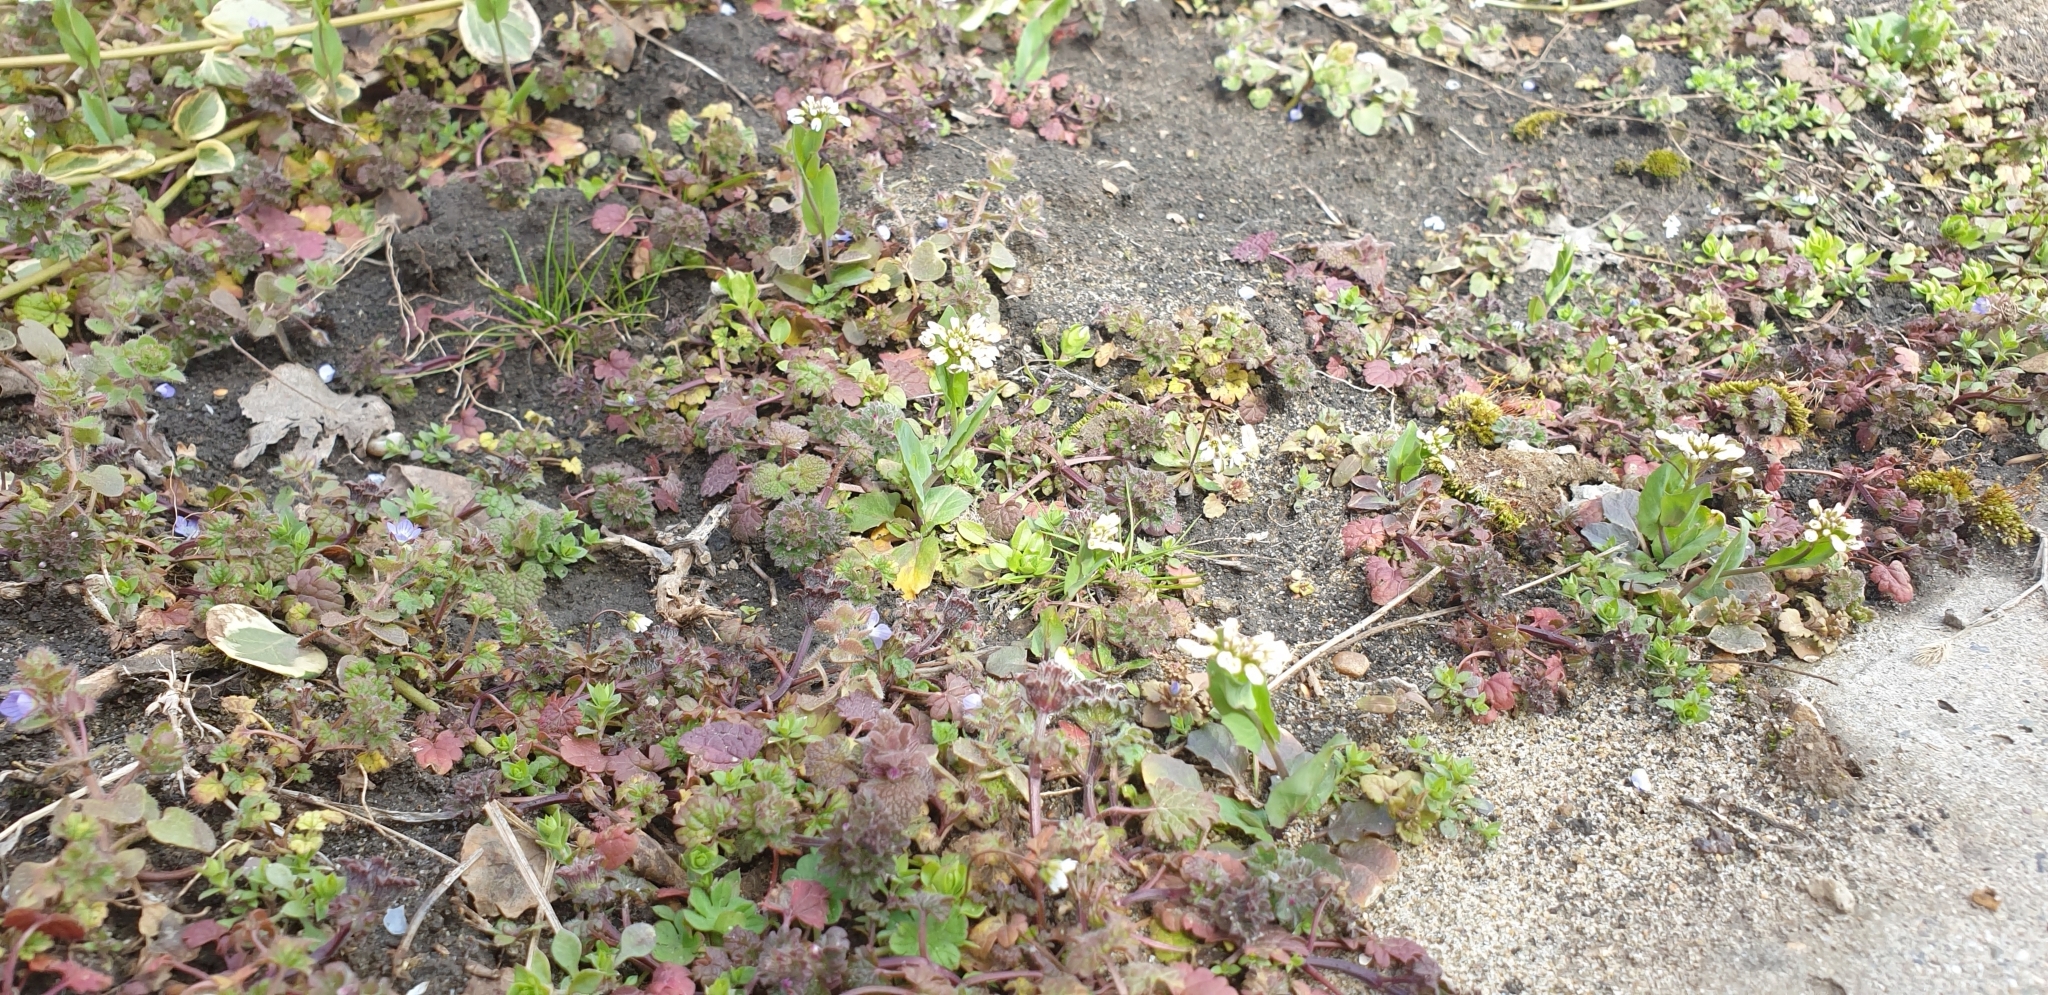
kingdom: Plantae
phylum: Tracheophyta
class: Magnoliopsida
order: Brassicales
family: Brassicaceae
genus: Noccaea
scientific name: Noccaea praecox
